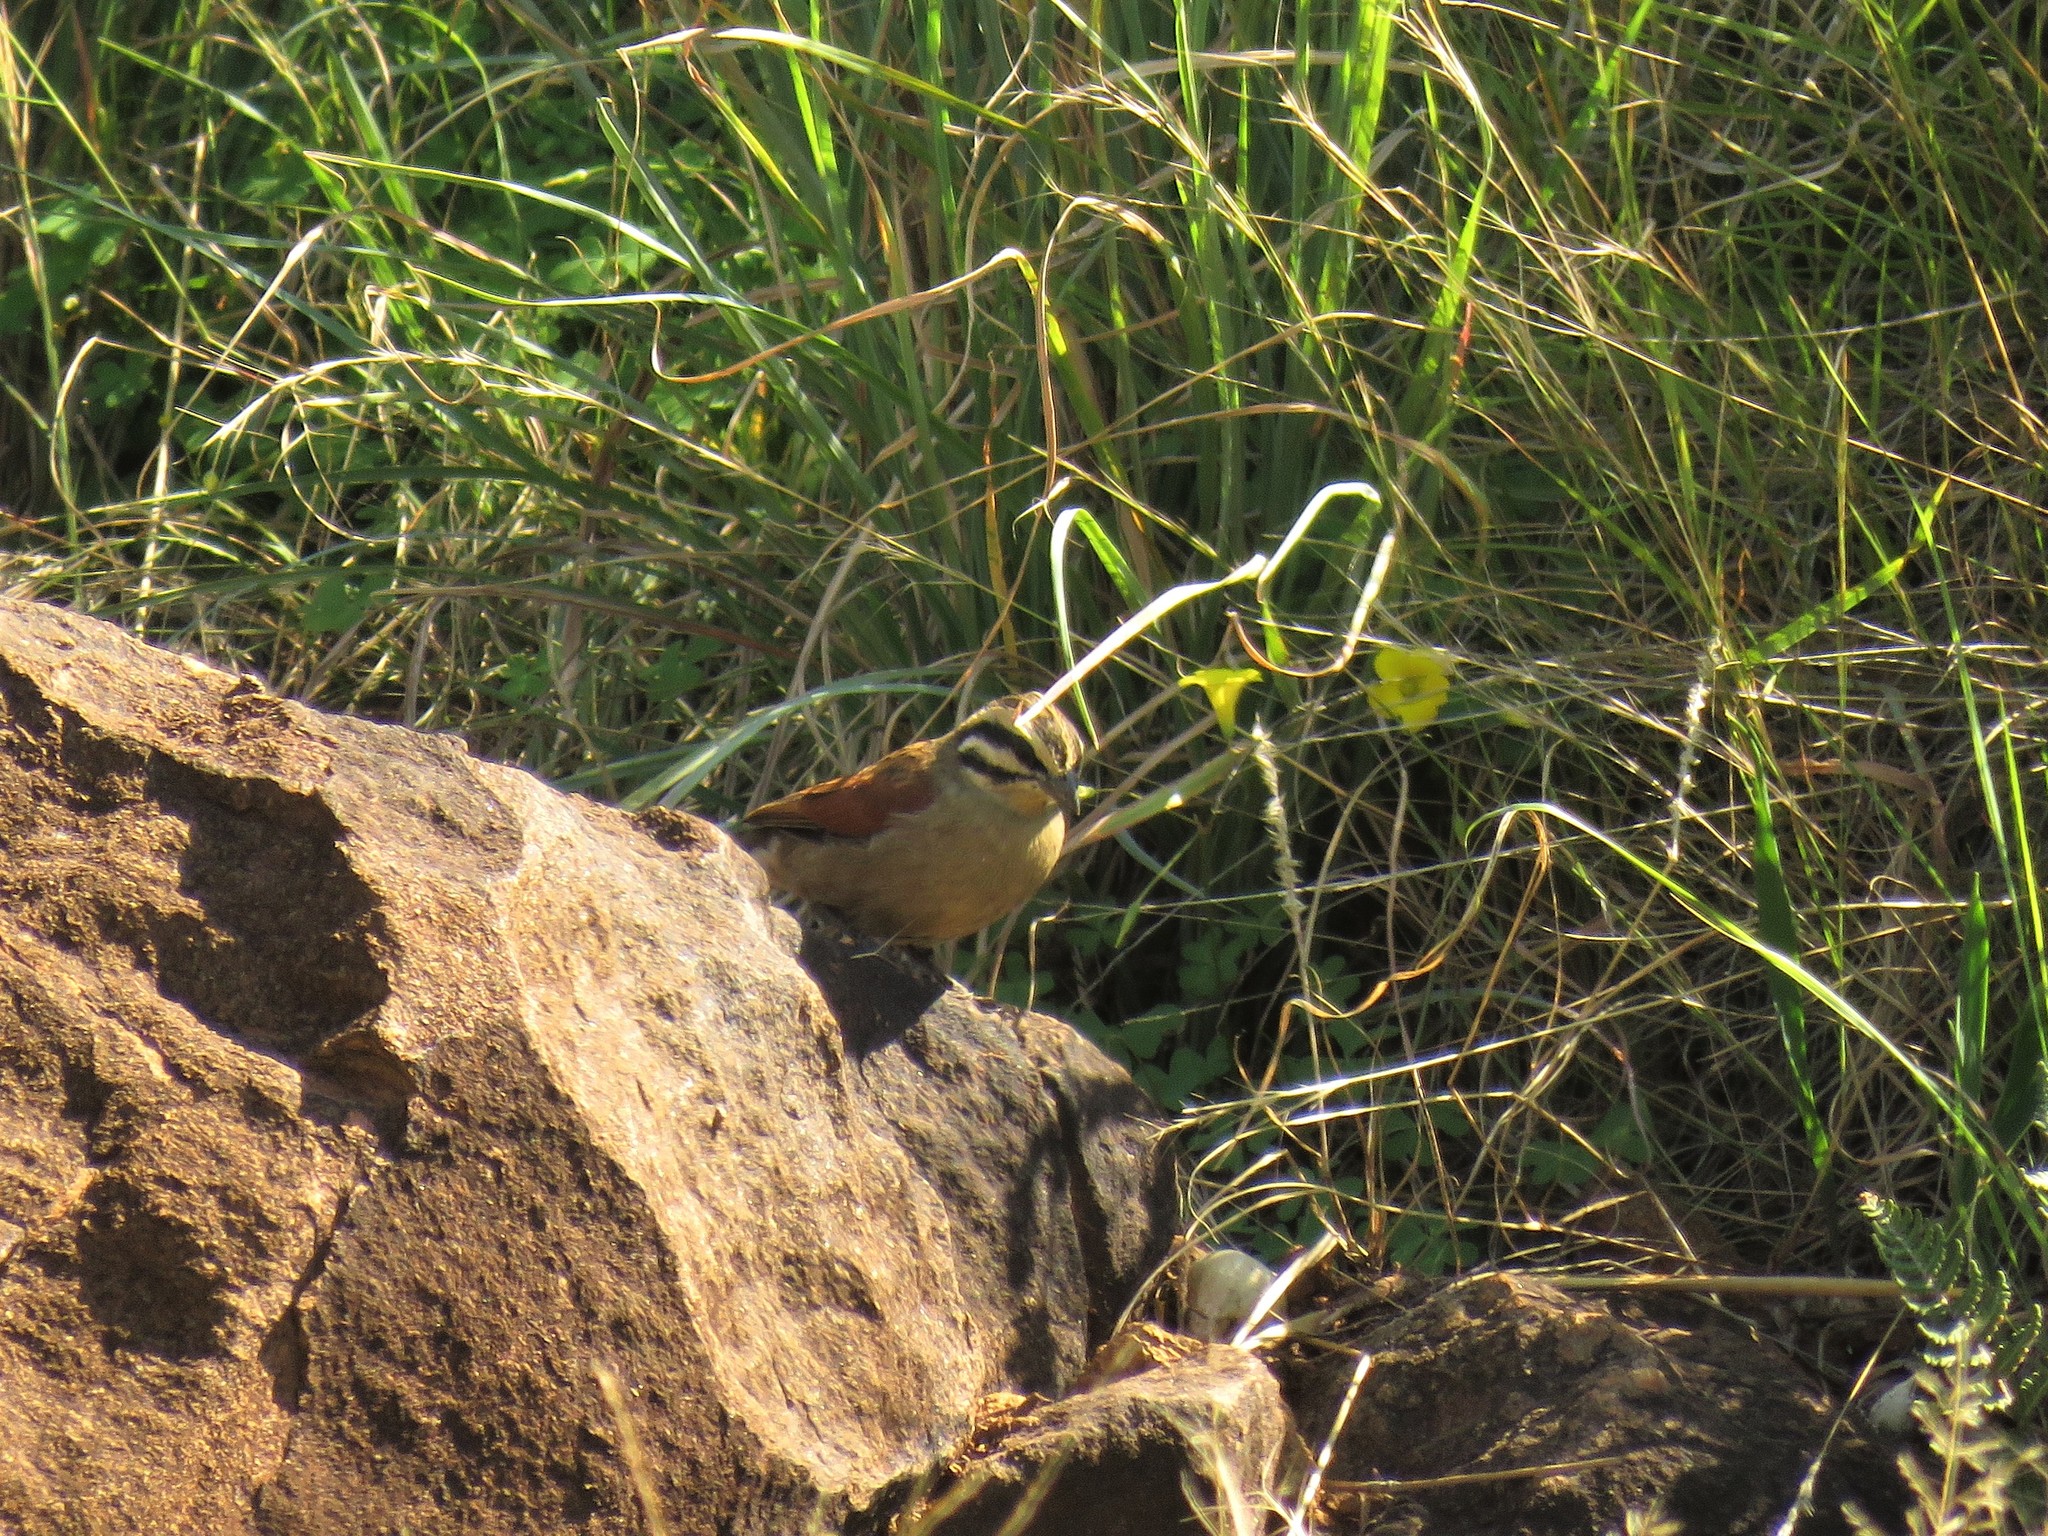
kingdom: Animalia
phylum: Chordata
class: Aves
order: Passeriformes
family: Emberizidae
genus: Emberiza
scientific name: Emberiza capensis
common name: Cape bunting
